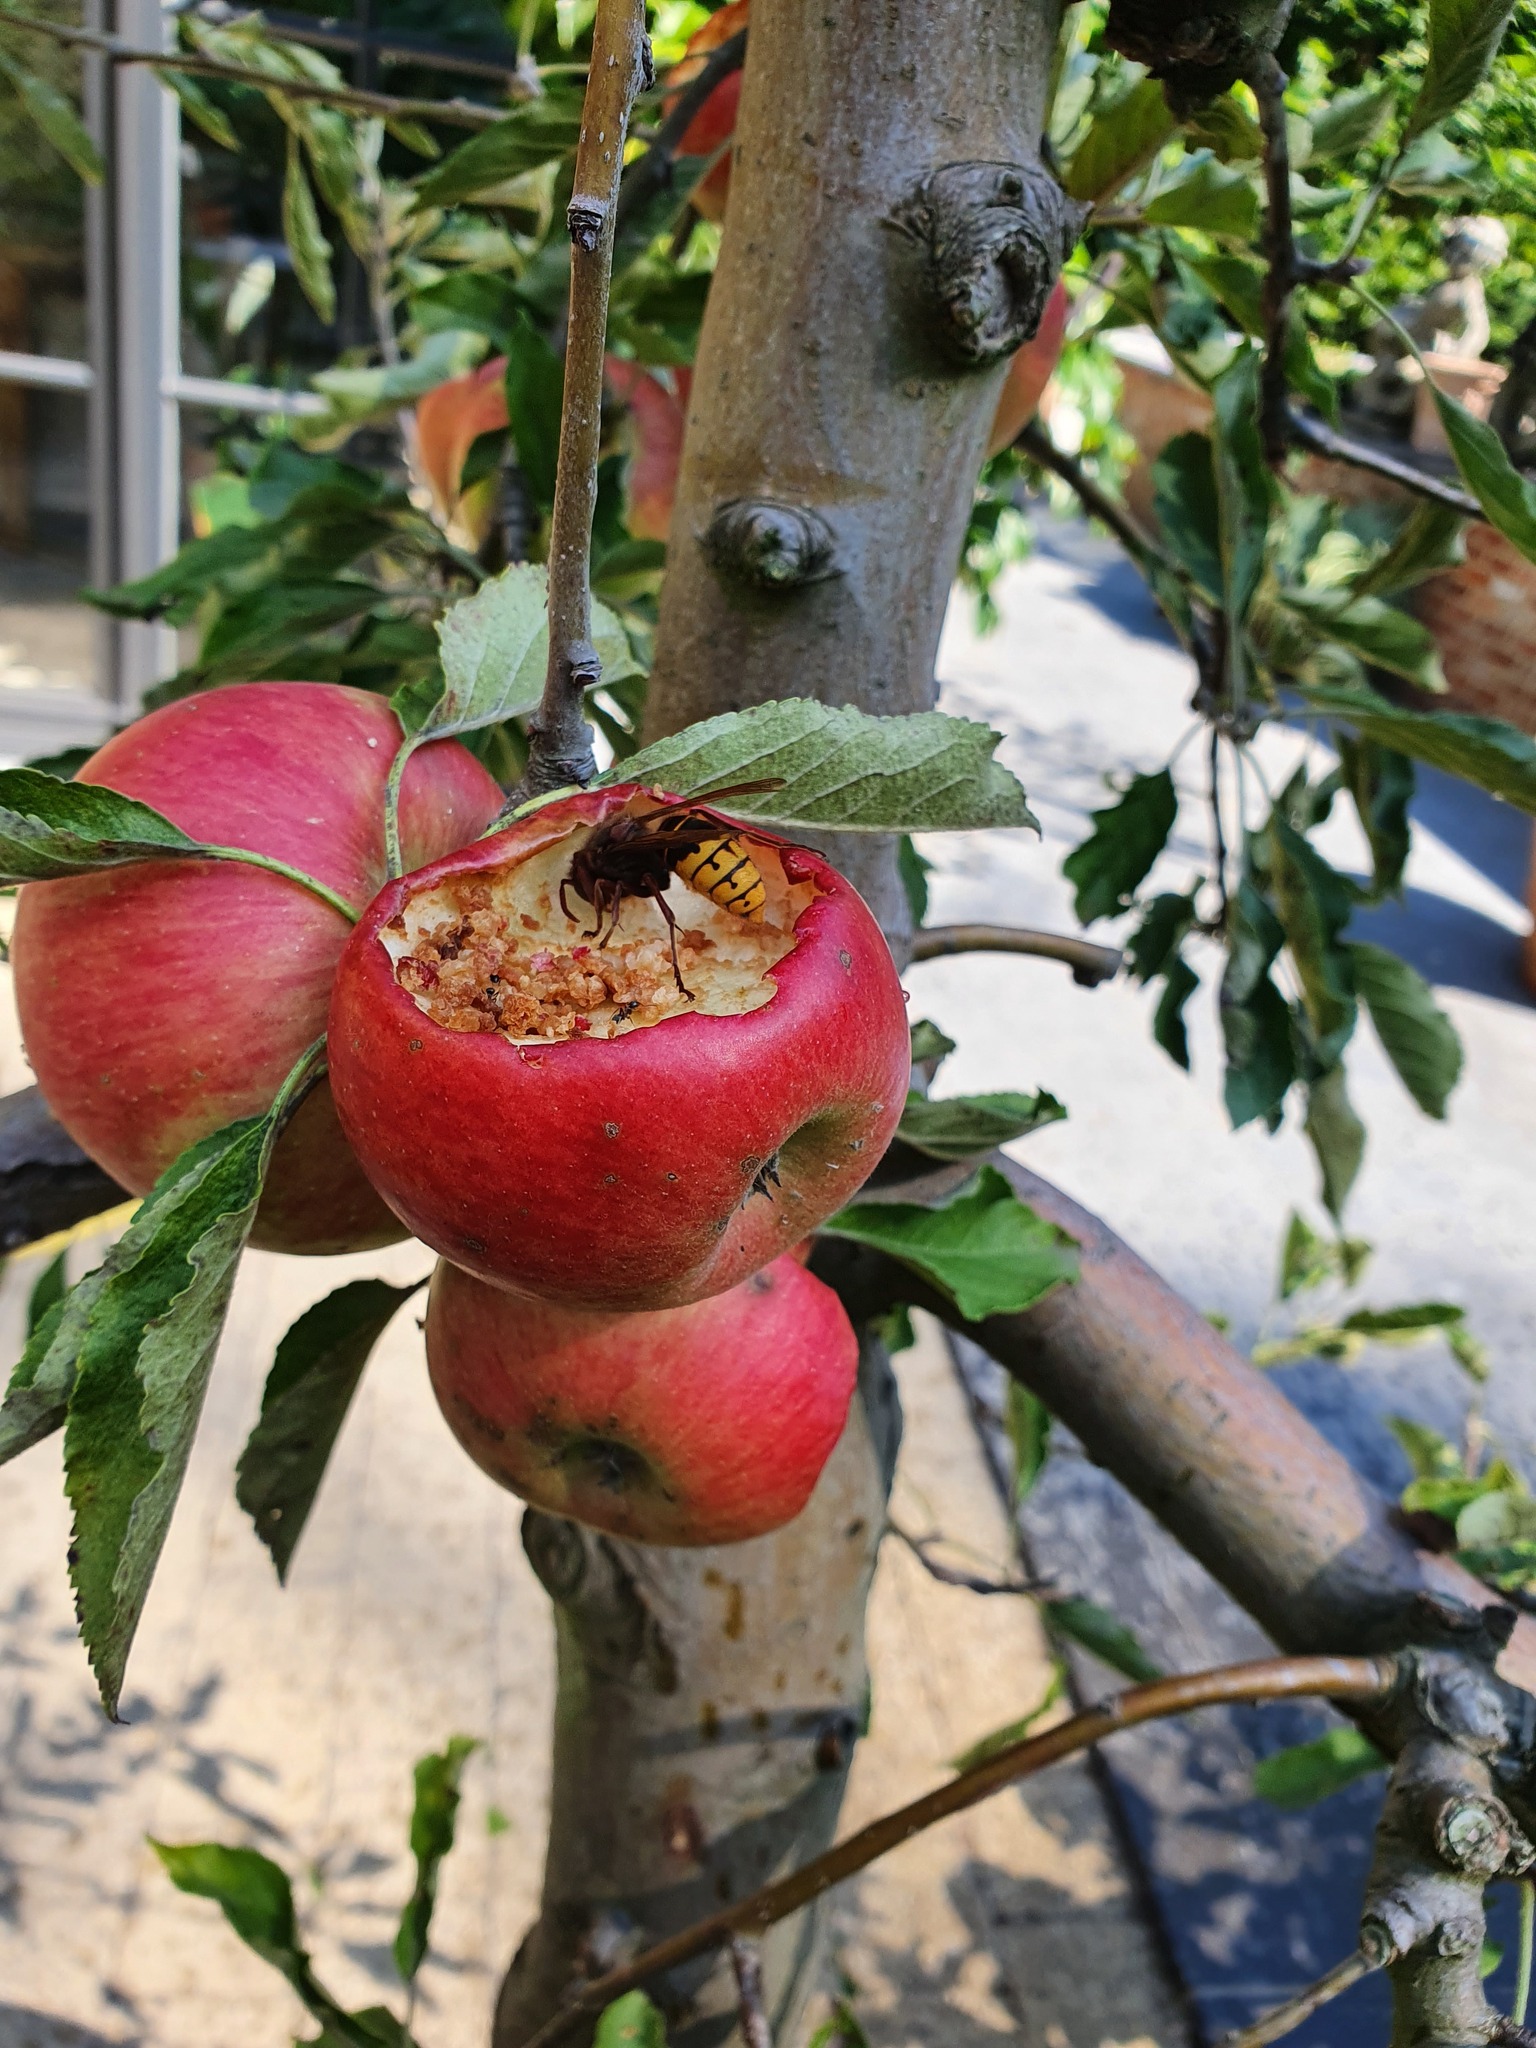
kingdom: Animalia
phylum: Arthropoda
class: Insecta
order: Hymenoptera
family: Vespidae
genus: Vespa
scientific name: Vespa crabro
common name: Hornet
